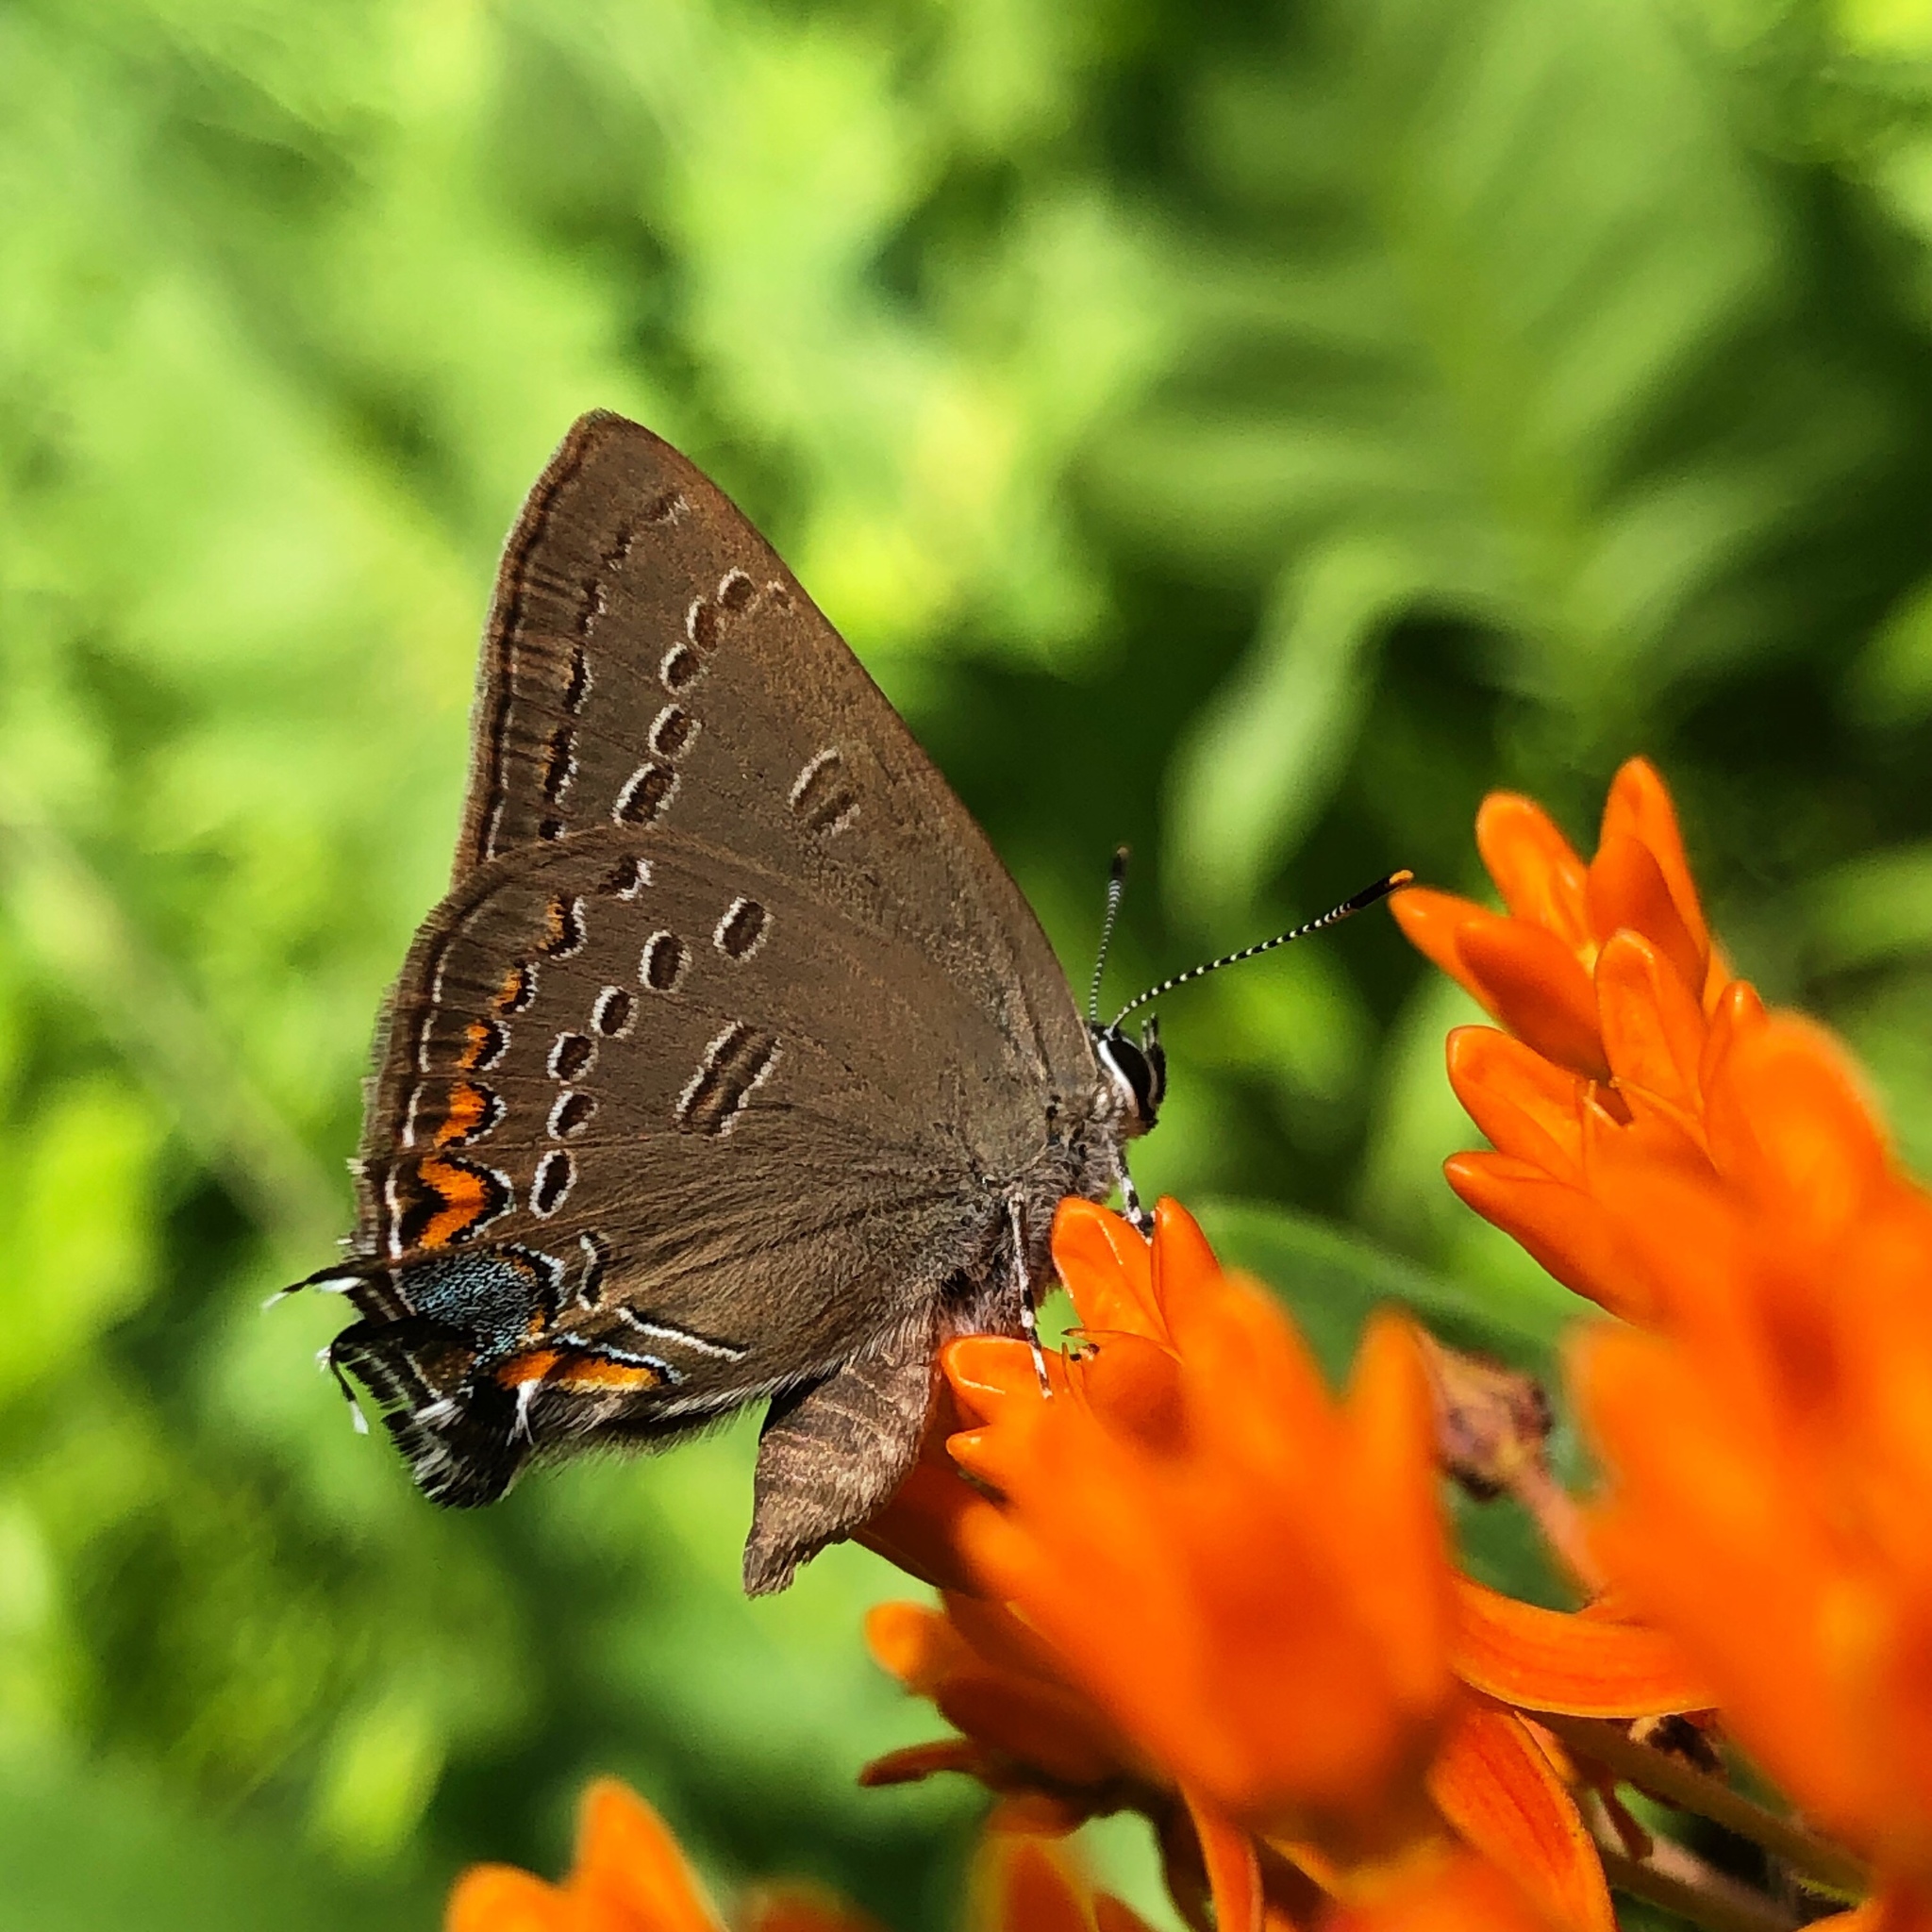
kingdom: Animalia
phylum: Arthropoda
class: Insecta
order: Lepidoptera
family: Lycaenidae
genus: Satyrium
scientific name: Satyrium edwardsii
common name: Edwards' hairstreak
